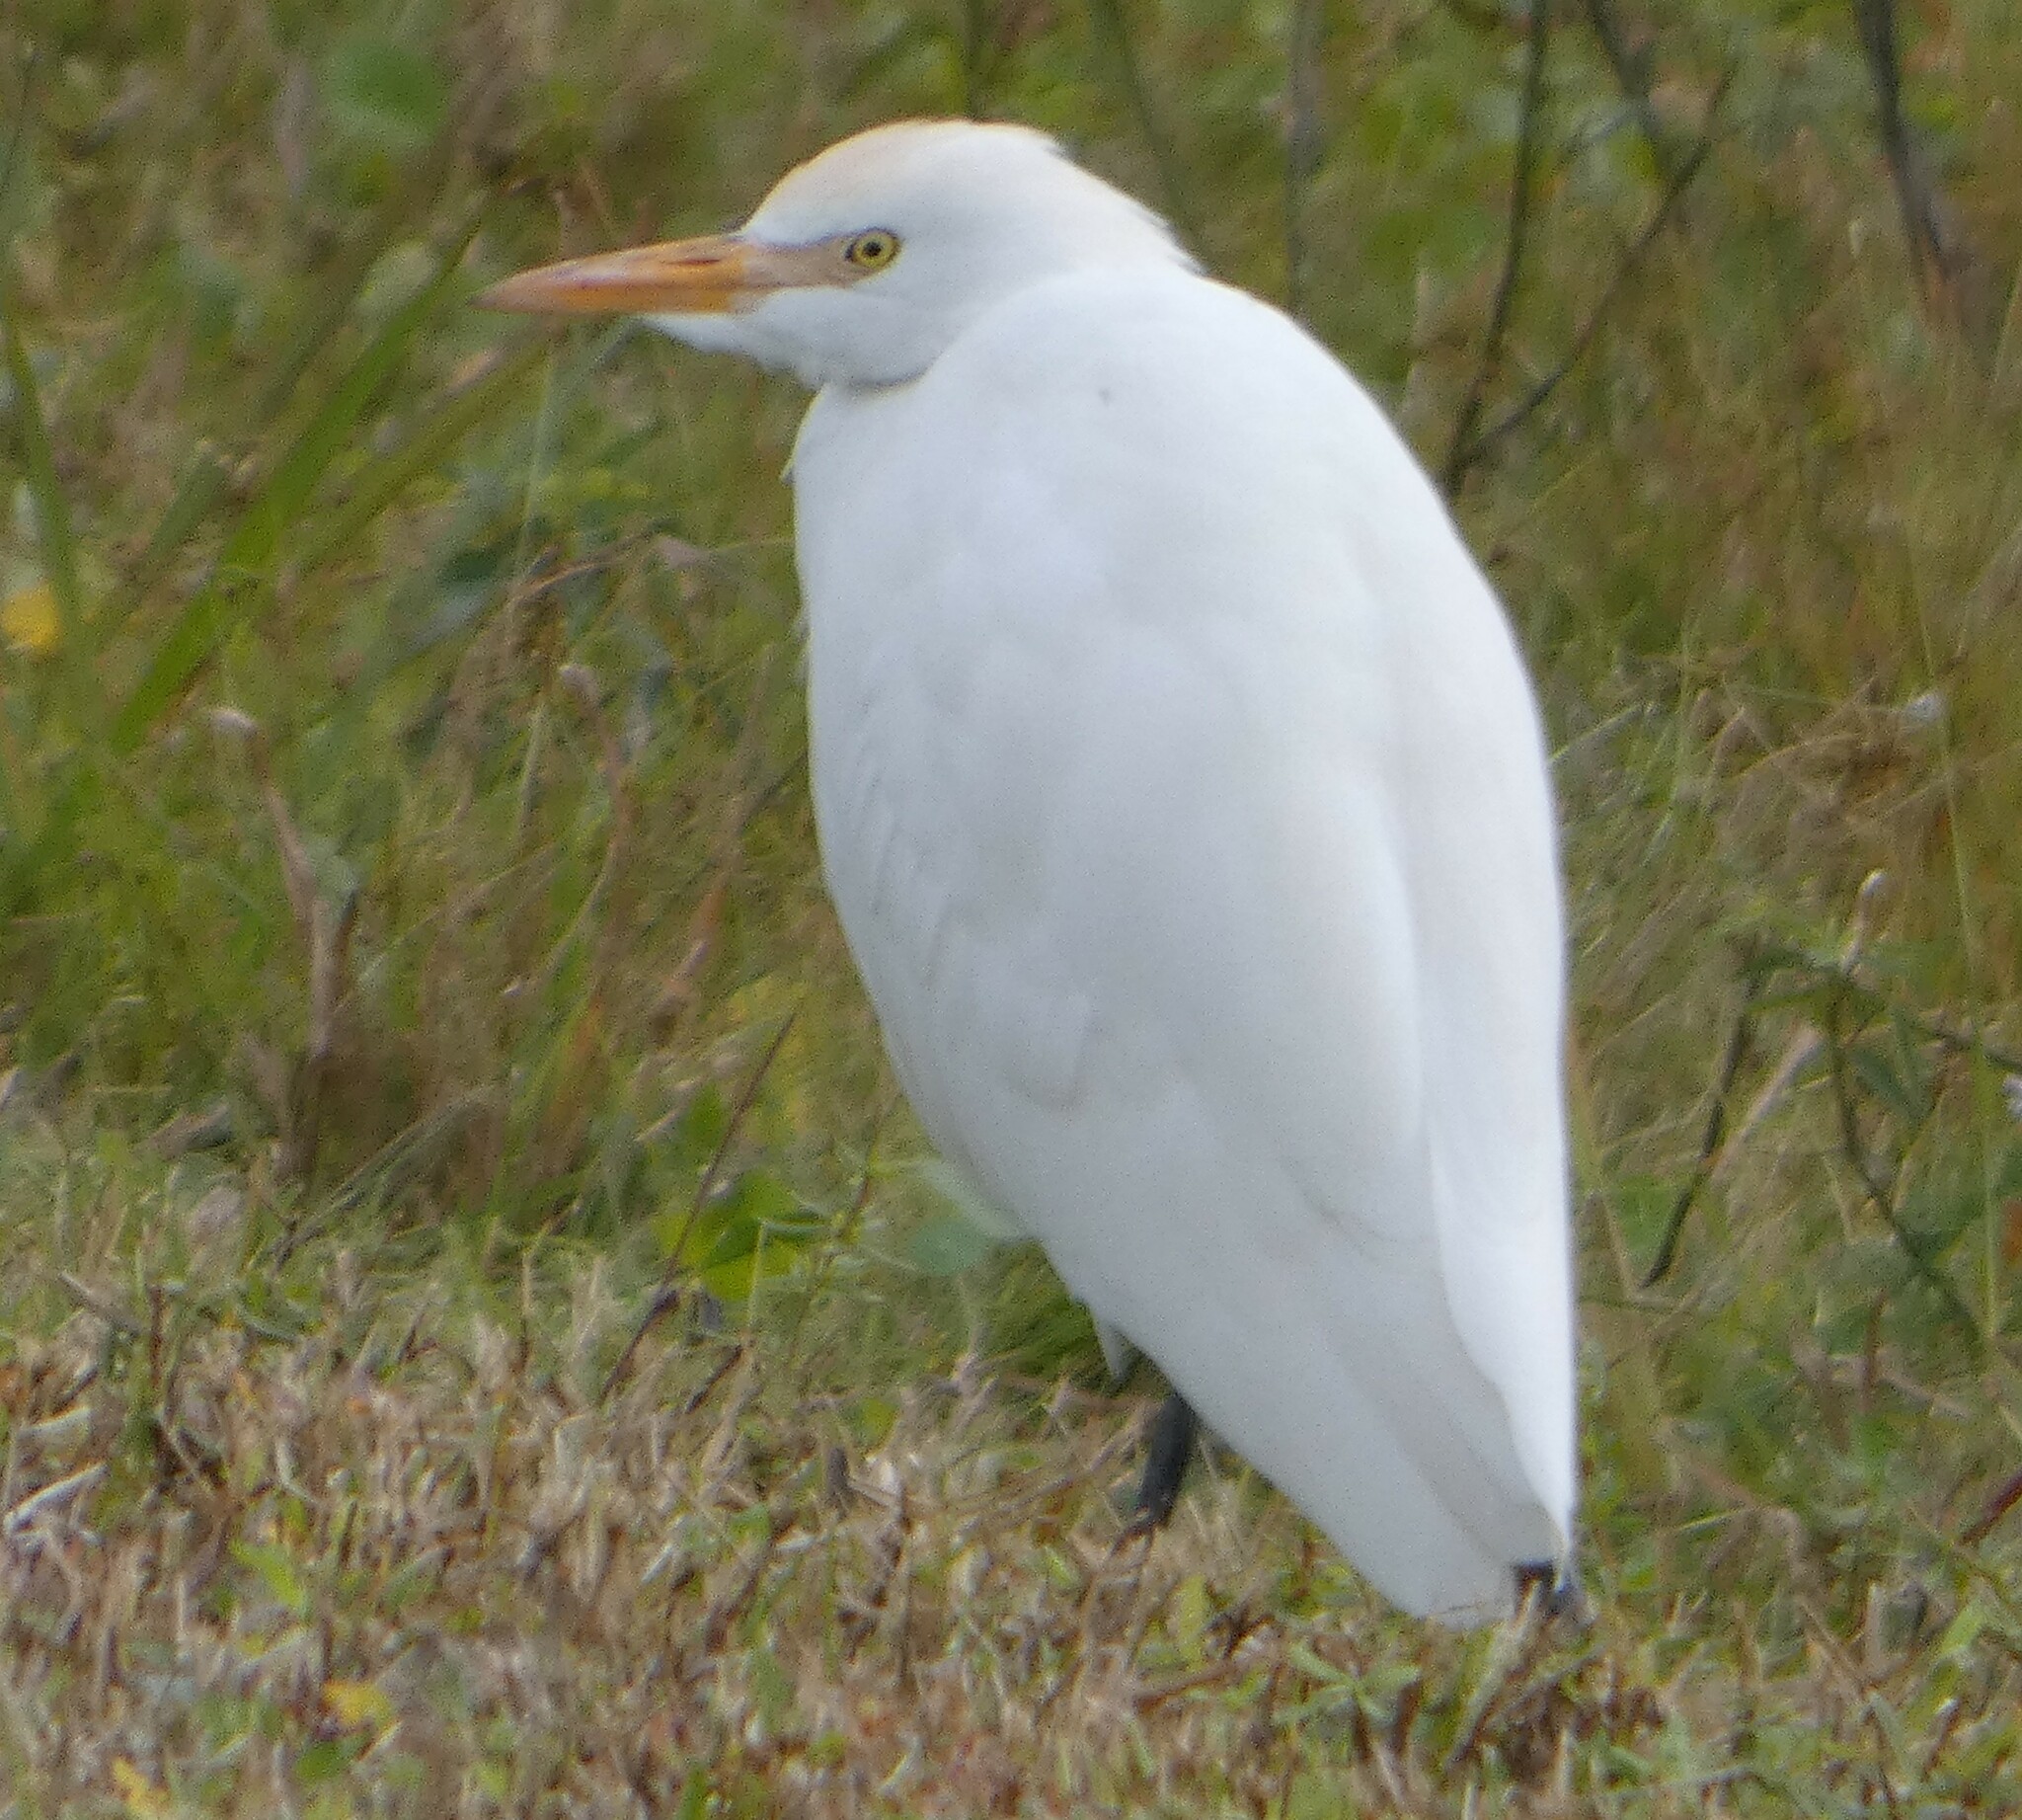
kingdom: Animalia
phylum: Chordata
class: Aves
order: Pelecaniformes
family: Ardeidae
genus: Bubulcus
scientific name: Bubulcus ibis
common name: Cattle egret
